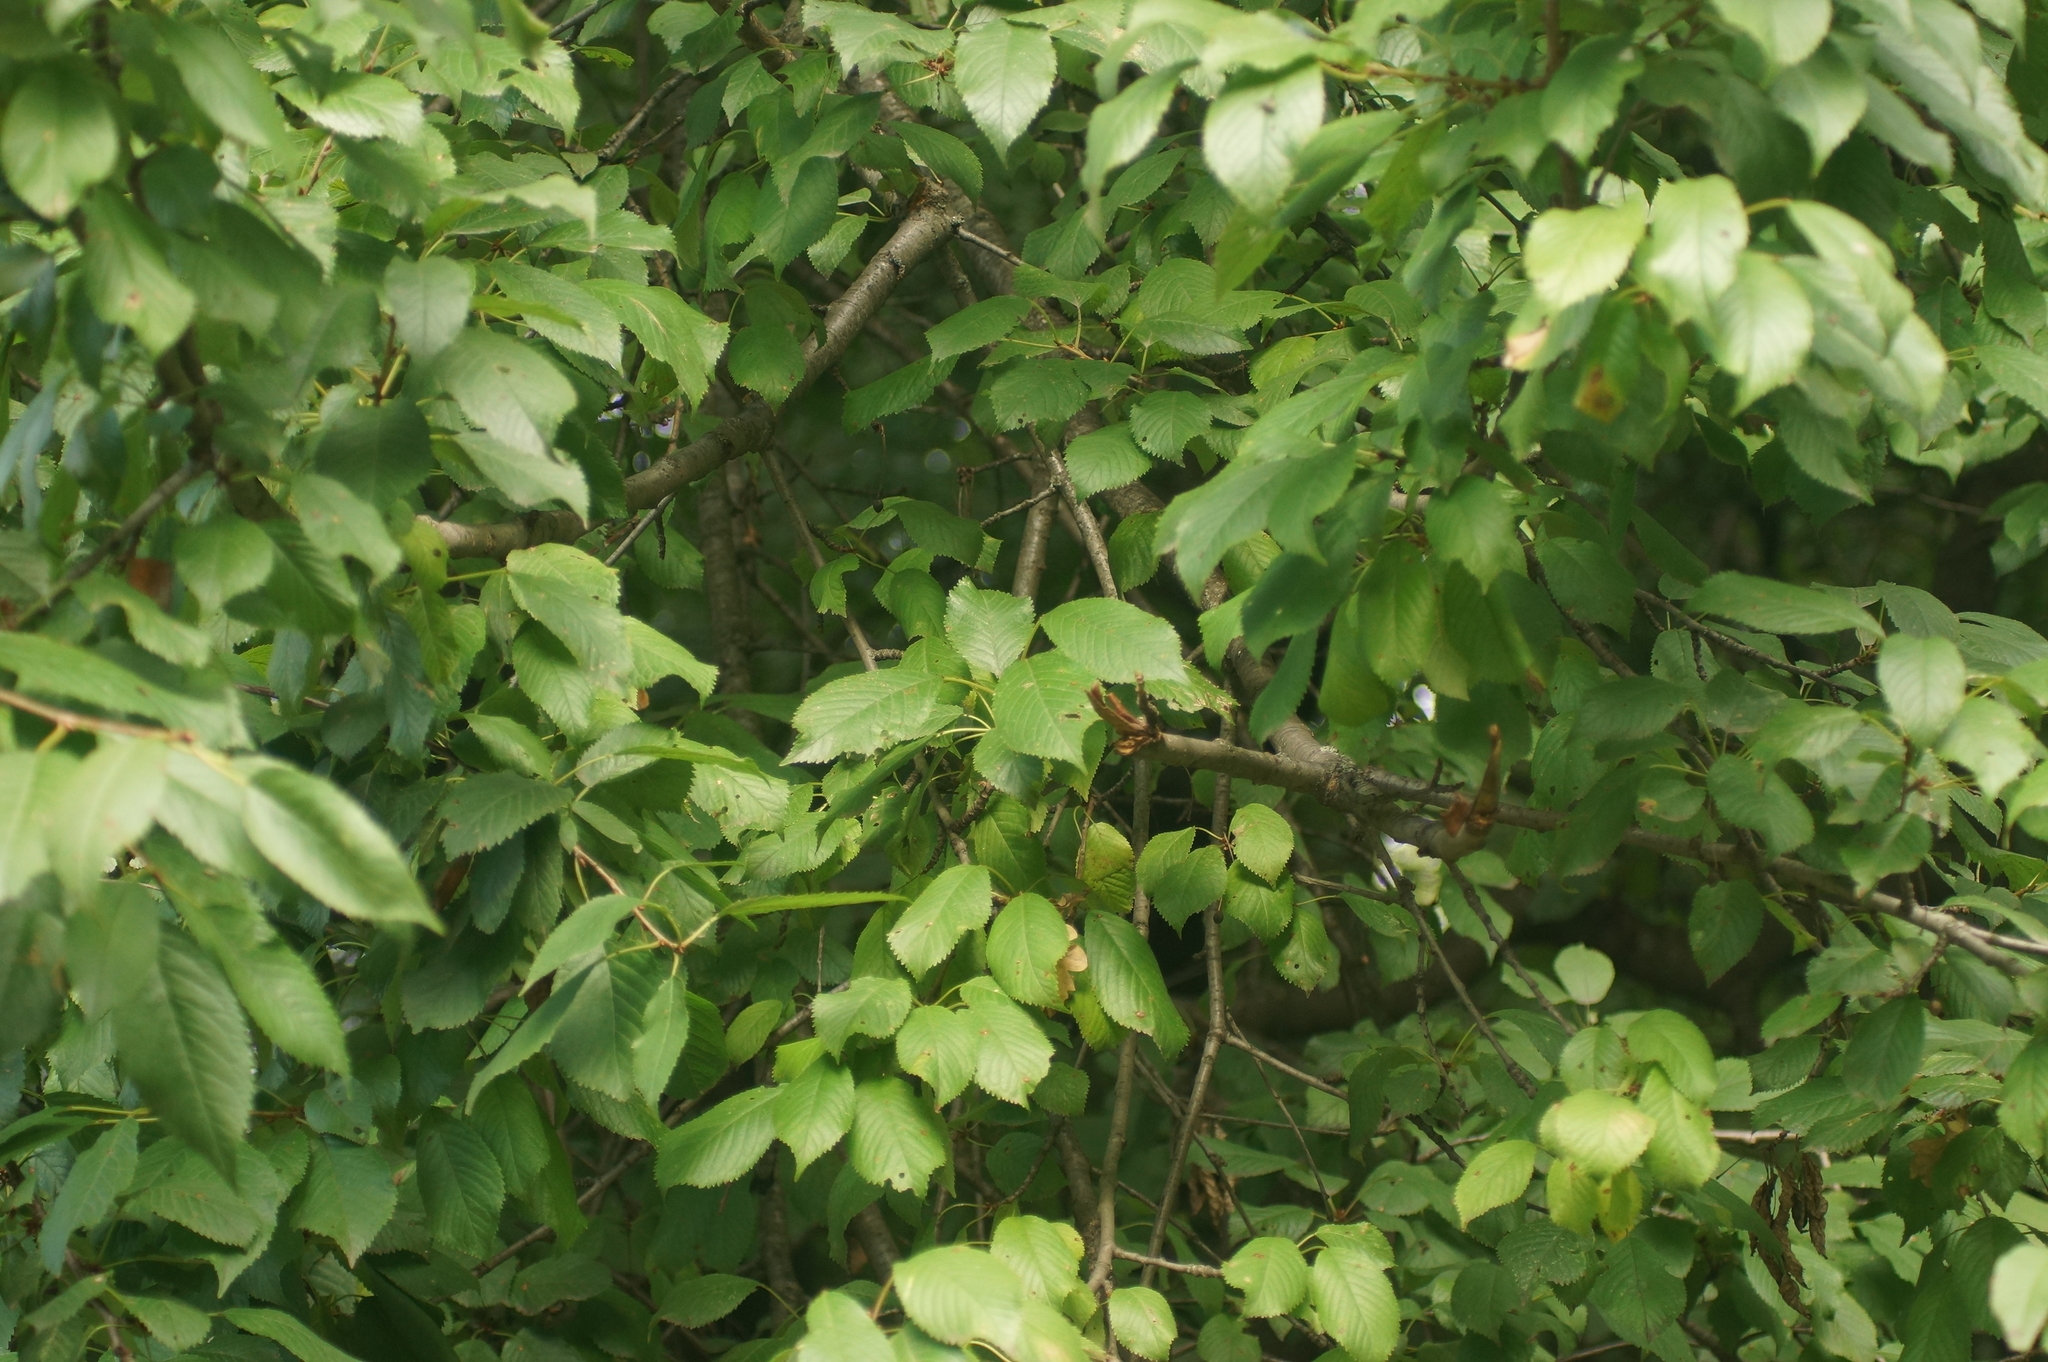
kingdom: Plantae
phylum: Tracheophyta
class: Magnoliopsida
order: Rosales
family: Rosaceae
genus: Prunus
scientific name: Prunus avium
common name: Sweet cherry
